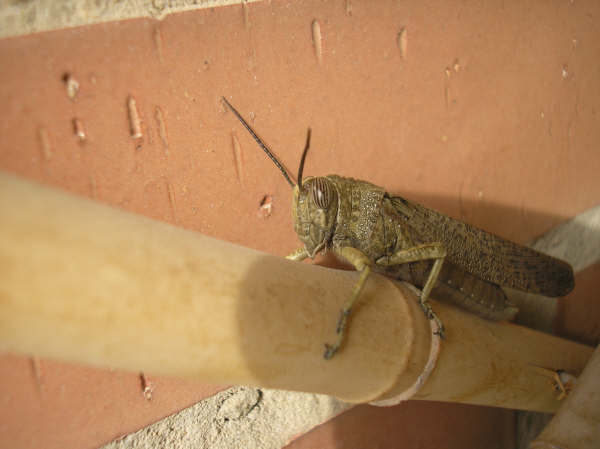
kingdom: Animalia
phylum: Arthropoda
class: Insecta
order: Orthoptera
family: Acrididae
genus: Anacridium
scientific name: Anacridium aegyptium
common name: Egyptian grasshopper
